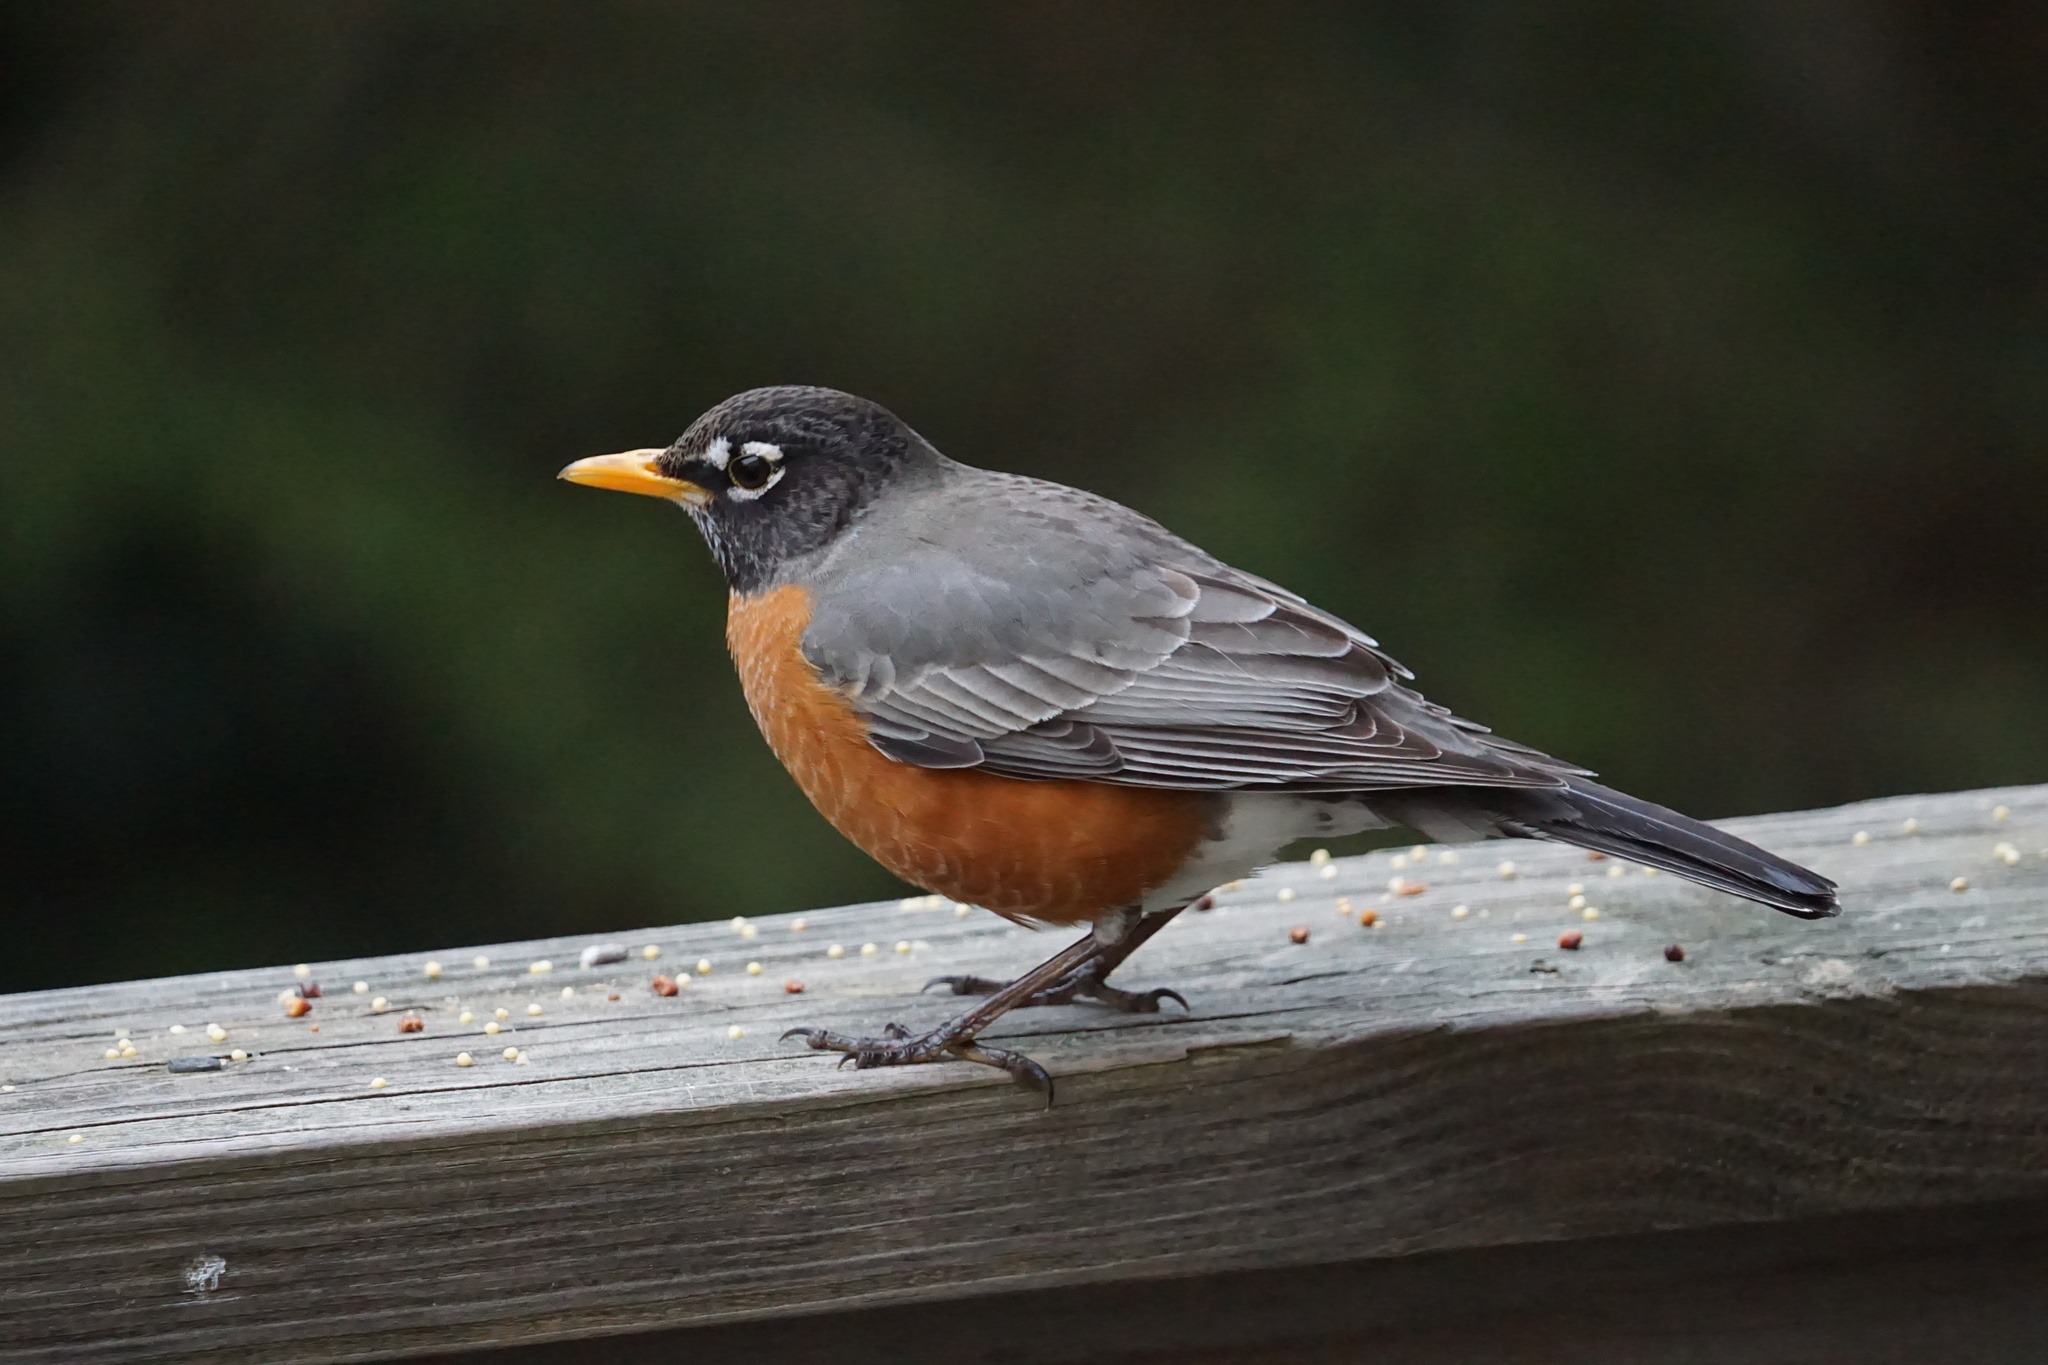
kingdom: Animalia
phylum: Chordata
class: Aves
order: Passeriformes
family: Turdidae
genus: Turdus
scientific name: Turdus migratorius
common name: American robin
